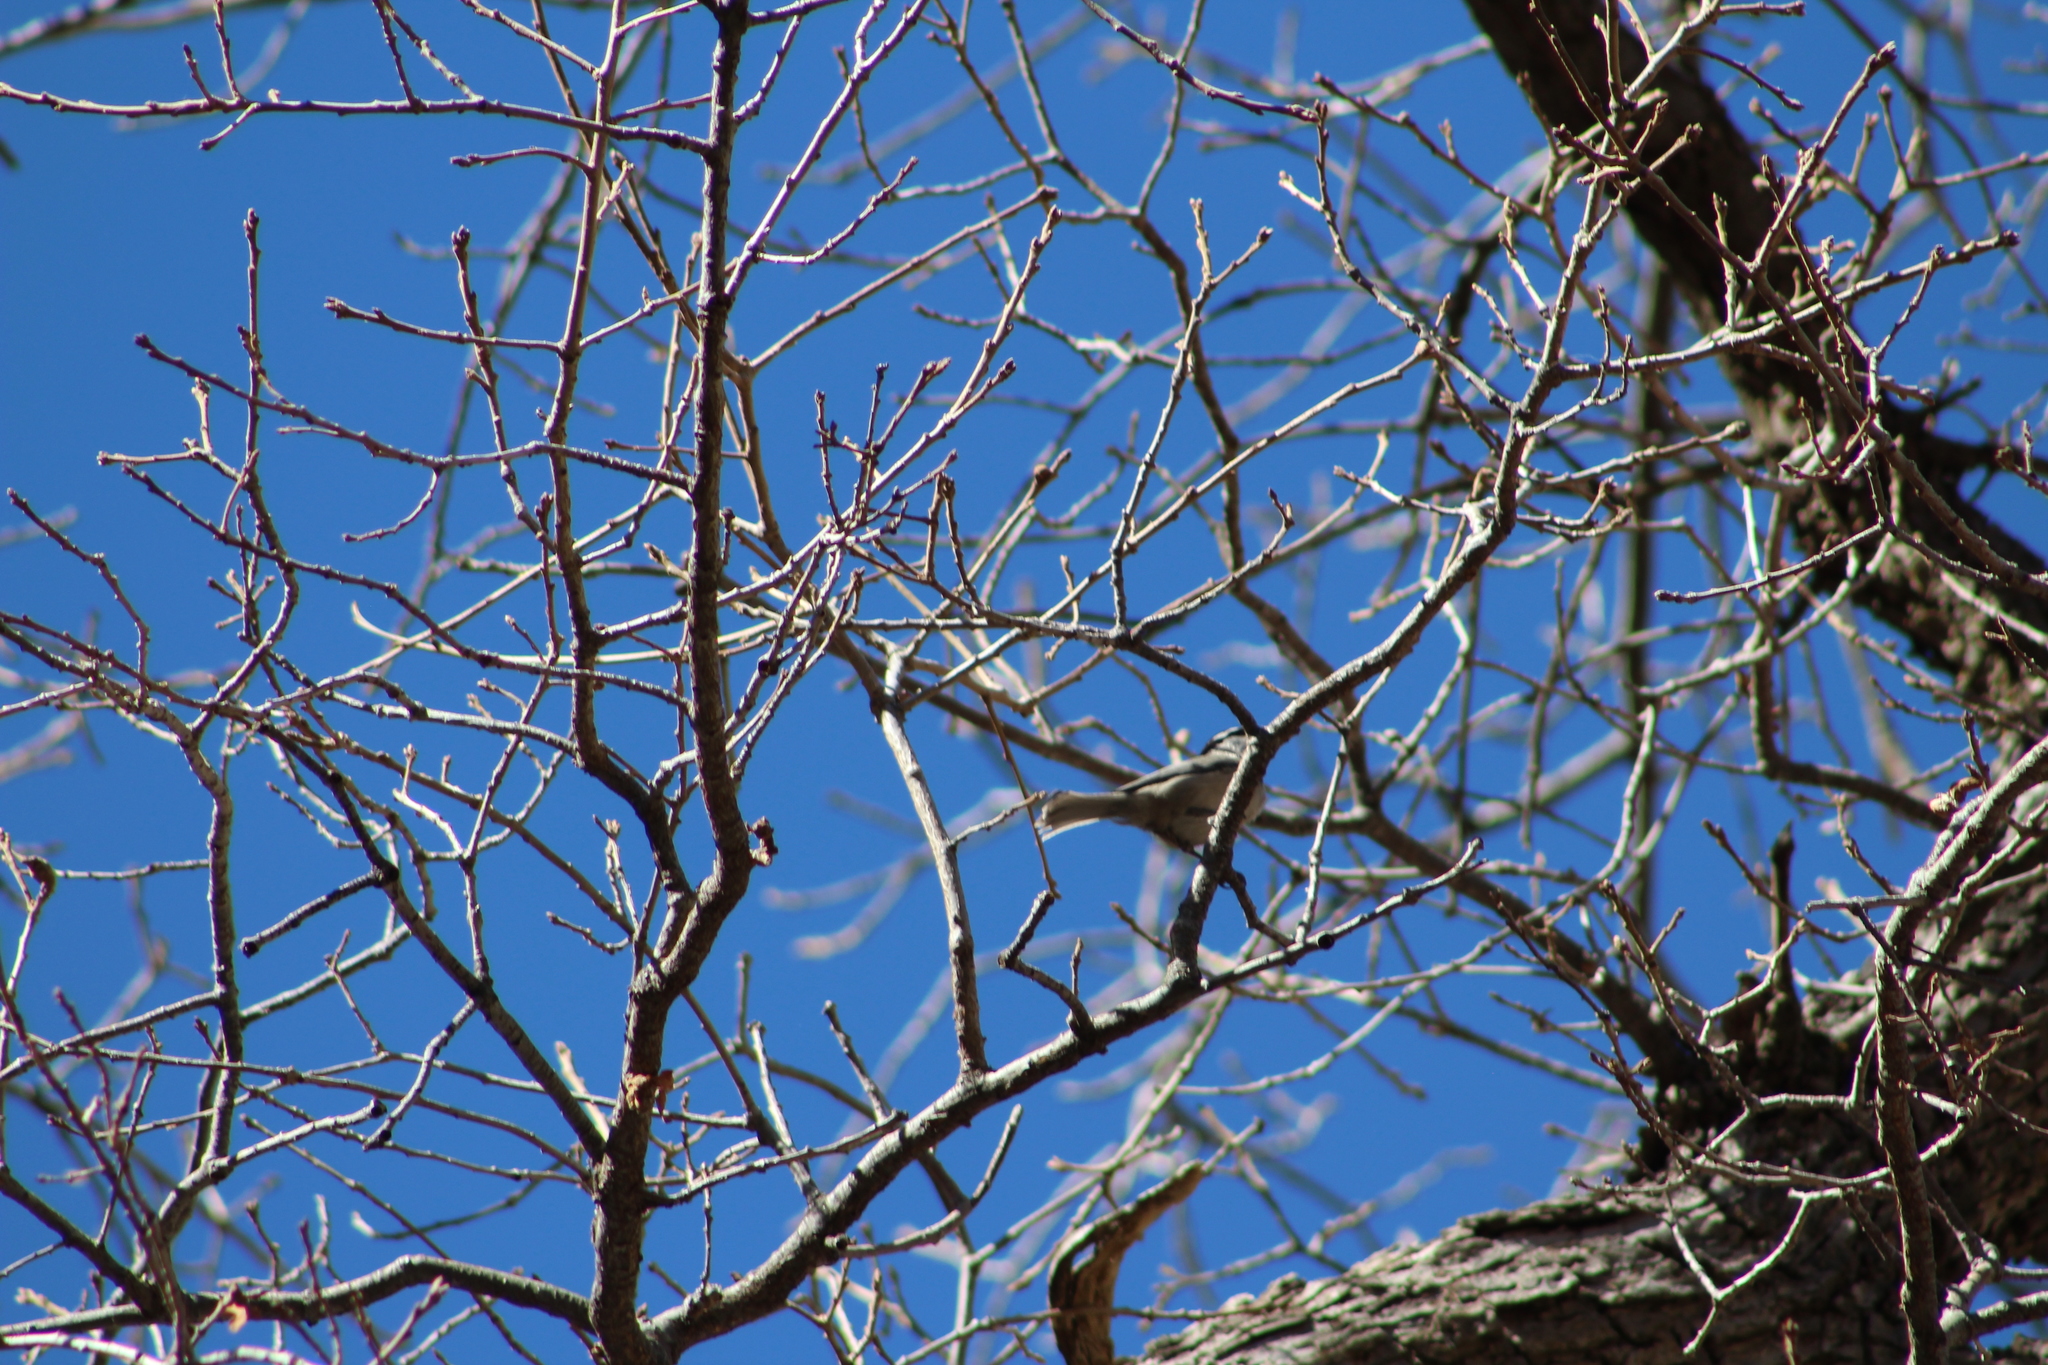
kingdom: Animalia
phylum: Chordata
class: Aves
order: Passeriformes
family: Paridae
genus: Poecile
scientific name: Poecile gambeli
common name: Mountain chickadee
